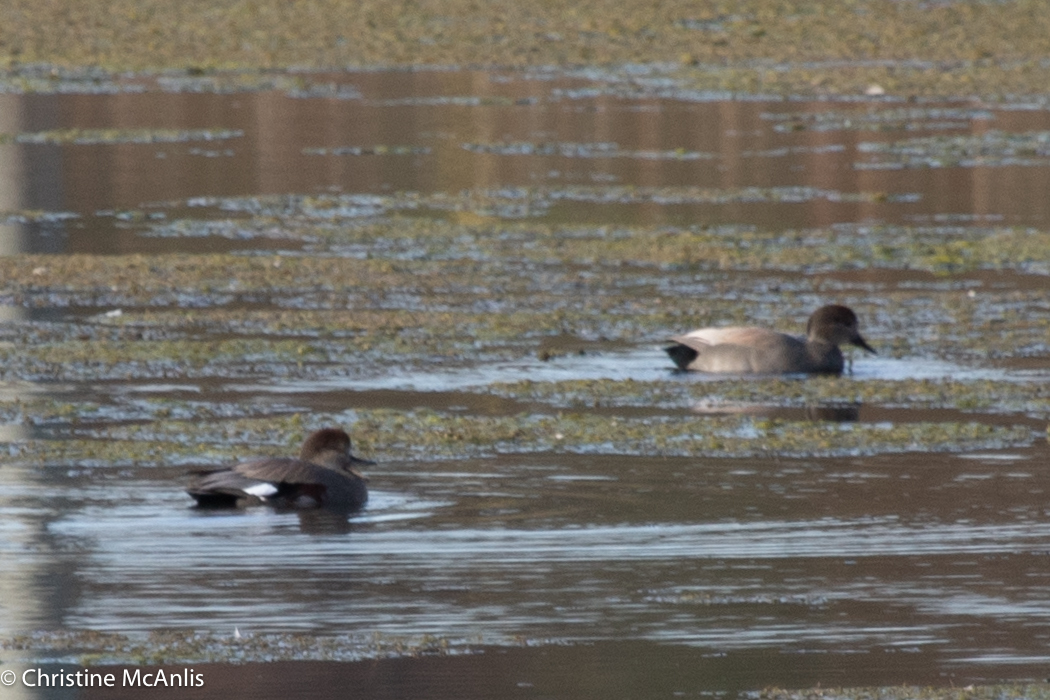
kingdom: Animalia
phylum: Chordata
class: Aves
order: Anseriformes
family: Anatidae
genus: Mareca
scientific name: Mareca strepera
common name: Gadwall
